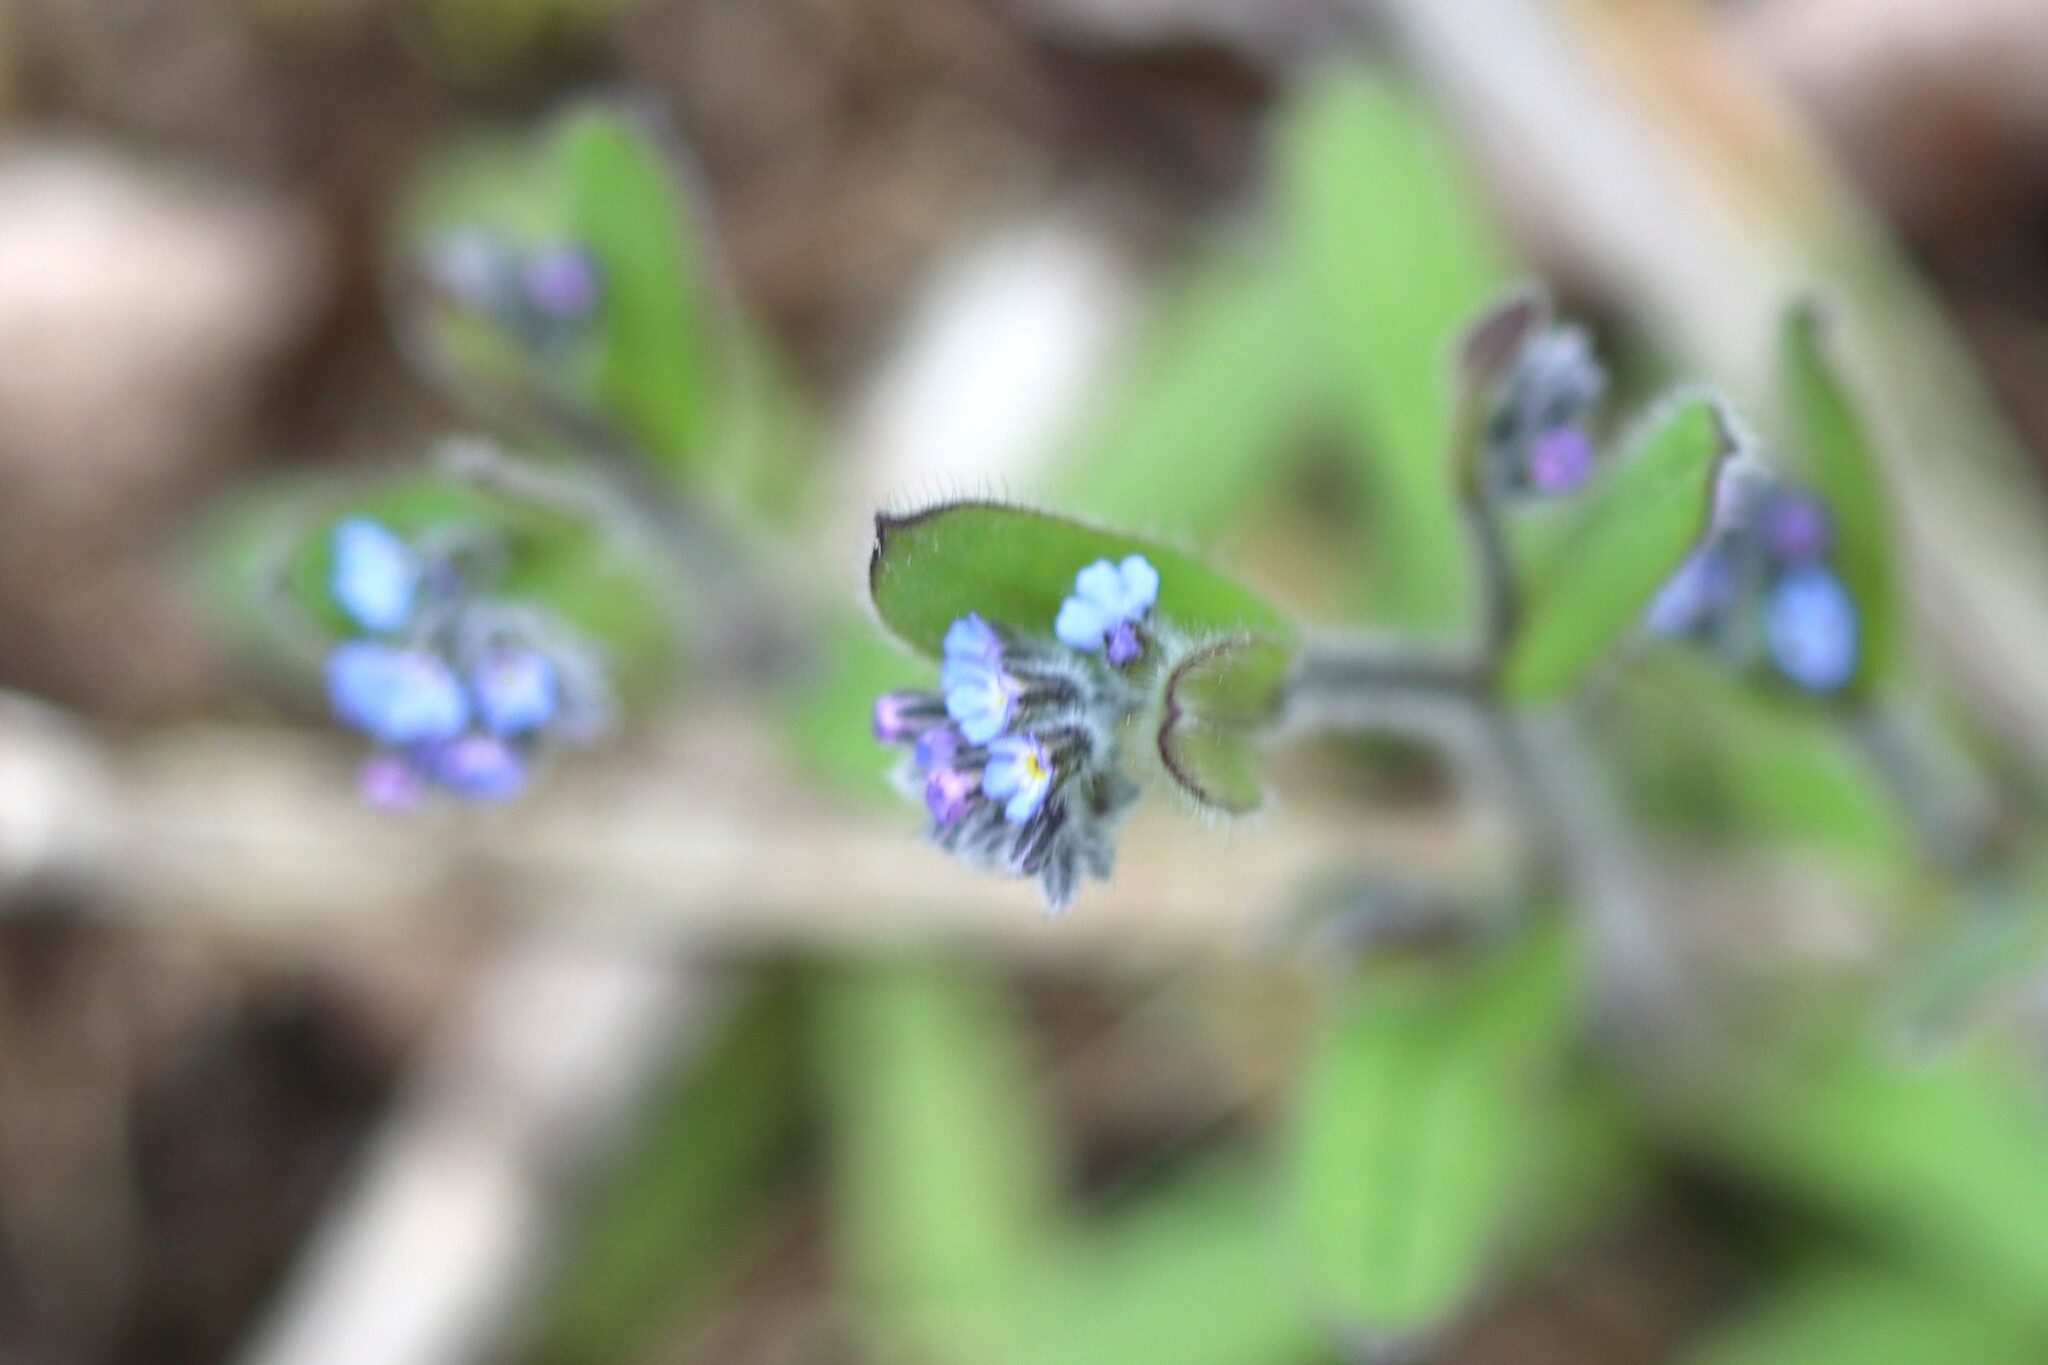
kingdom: Plantae
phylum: Tracheophyta
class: Magnoliopsida
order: Boraginales
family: Boraginaceae
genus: Myosotis
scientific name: Myosotis stricta
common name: Strict forget-me-not
